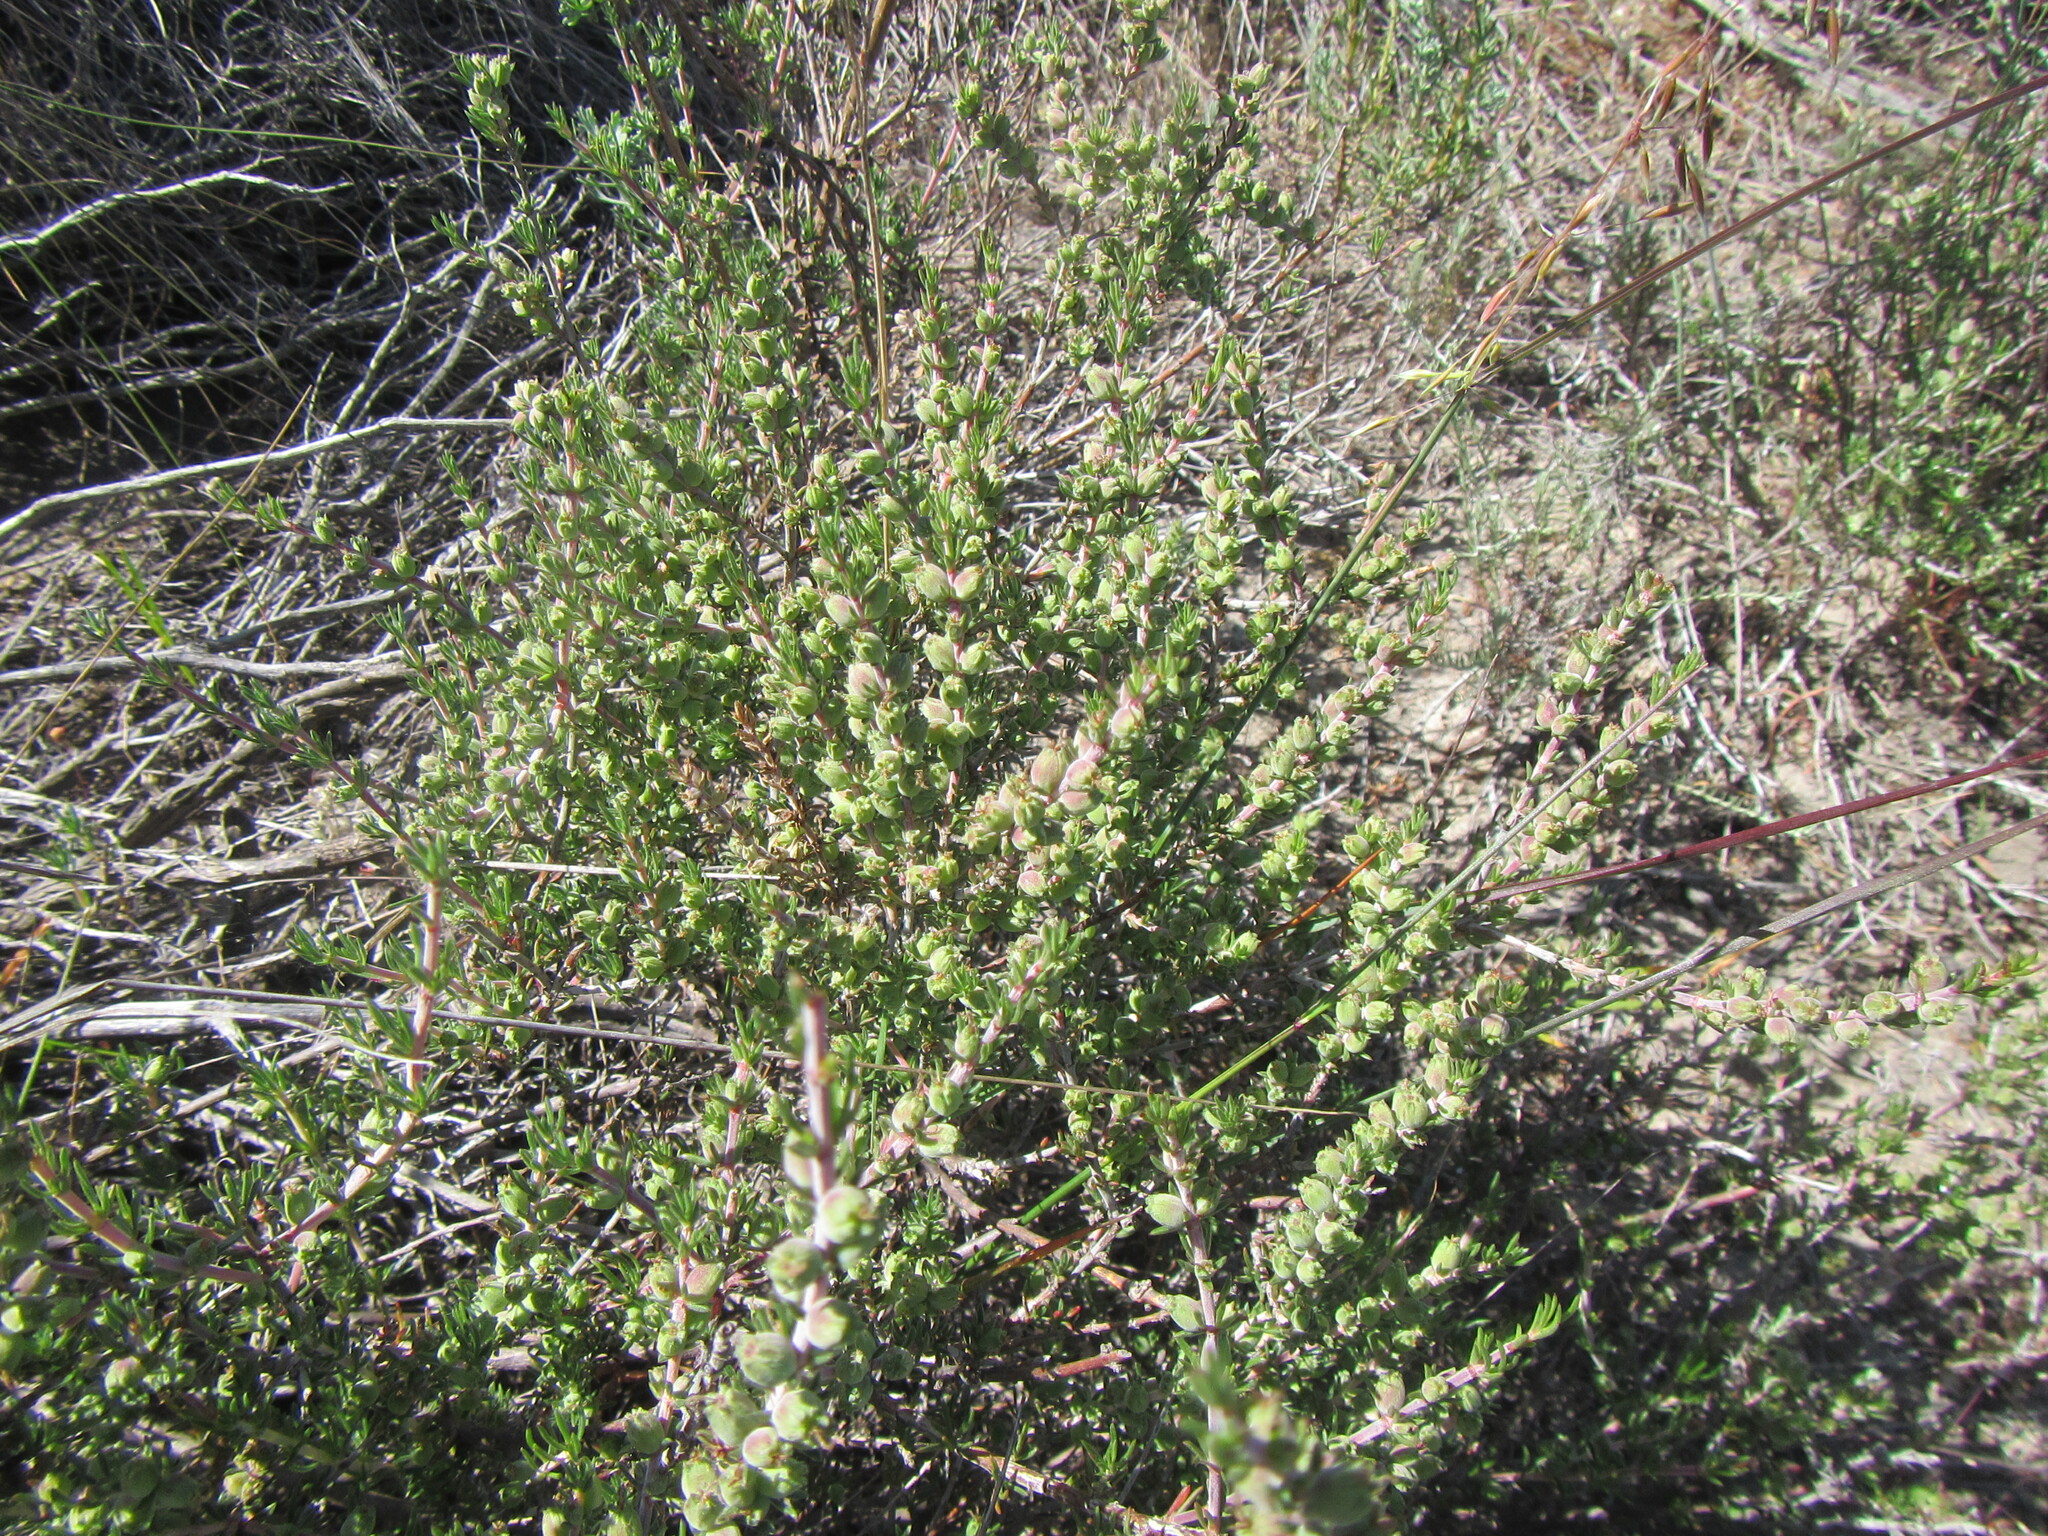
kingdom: Plantae
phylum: Tracheophyta
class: Magnoliopsida
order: Gentianales
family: Rubiaceae
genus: Nenax
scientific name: Nenax acerosa
